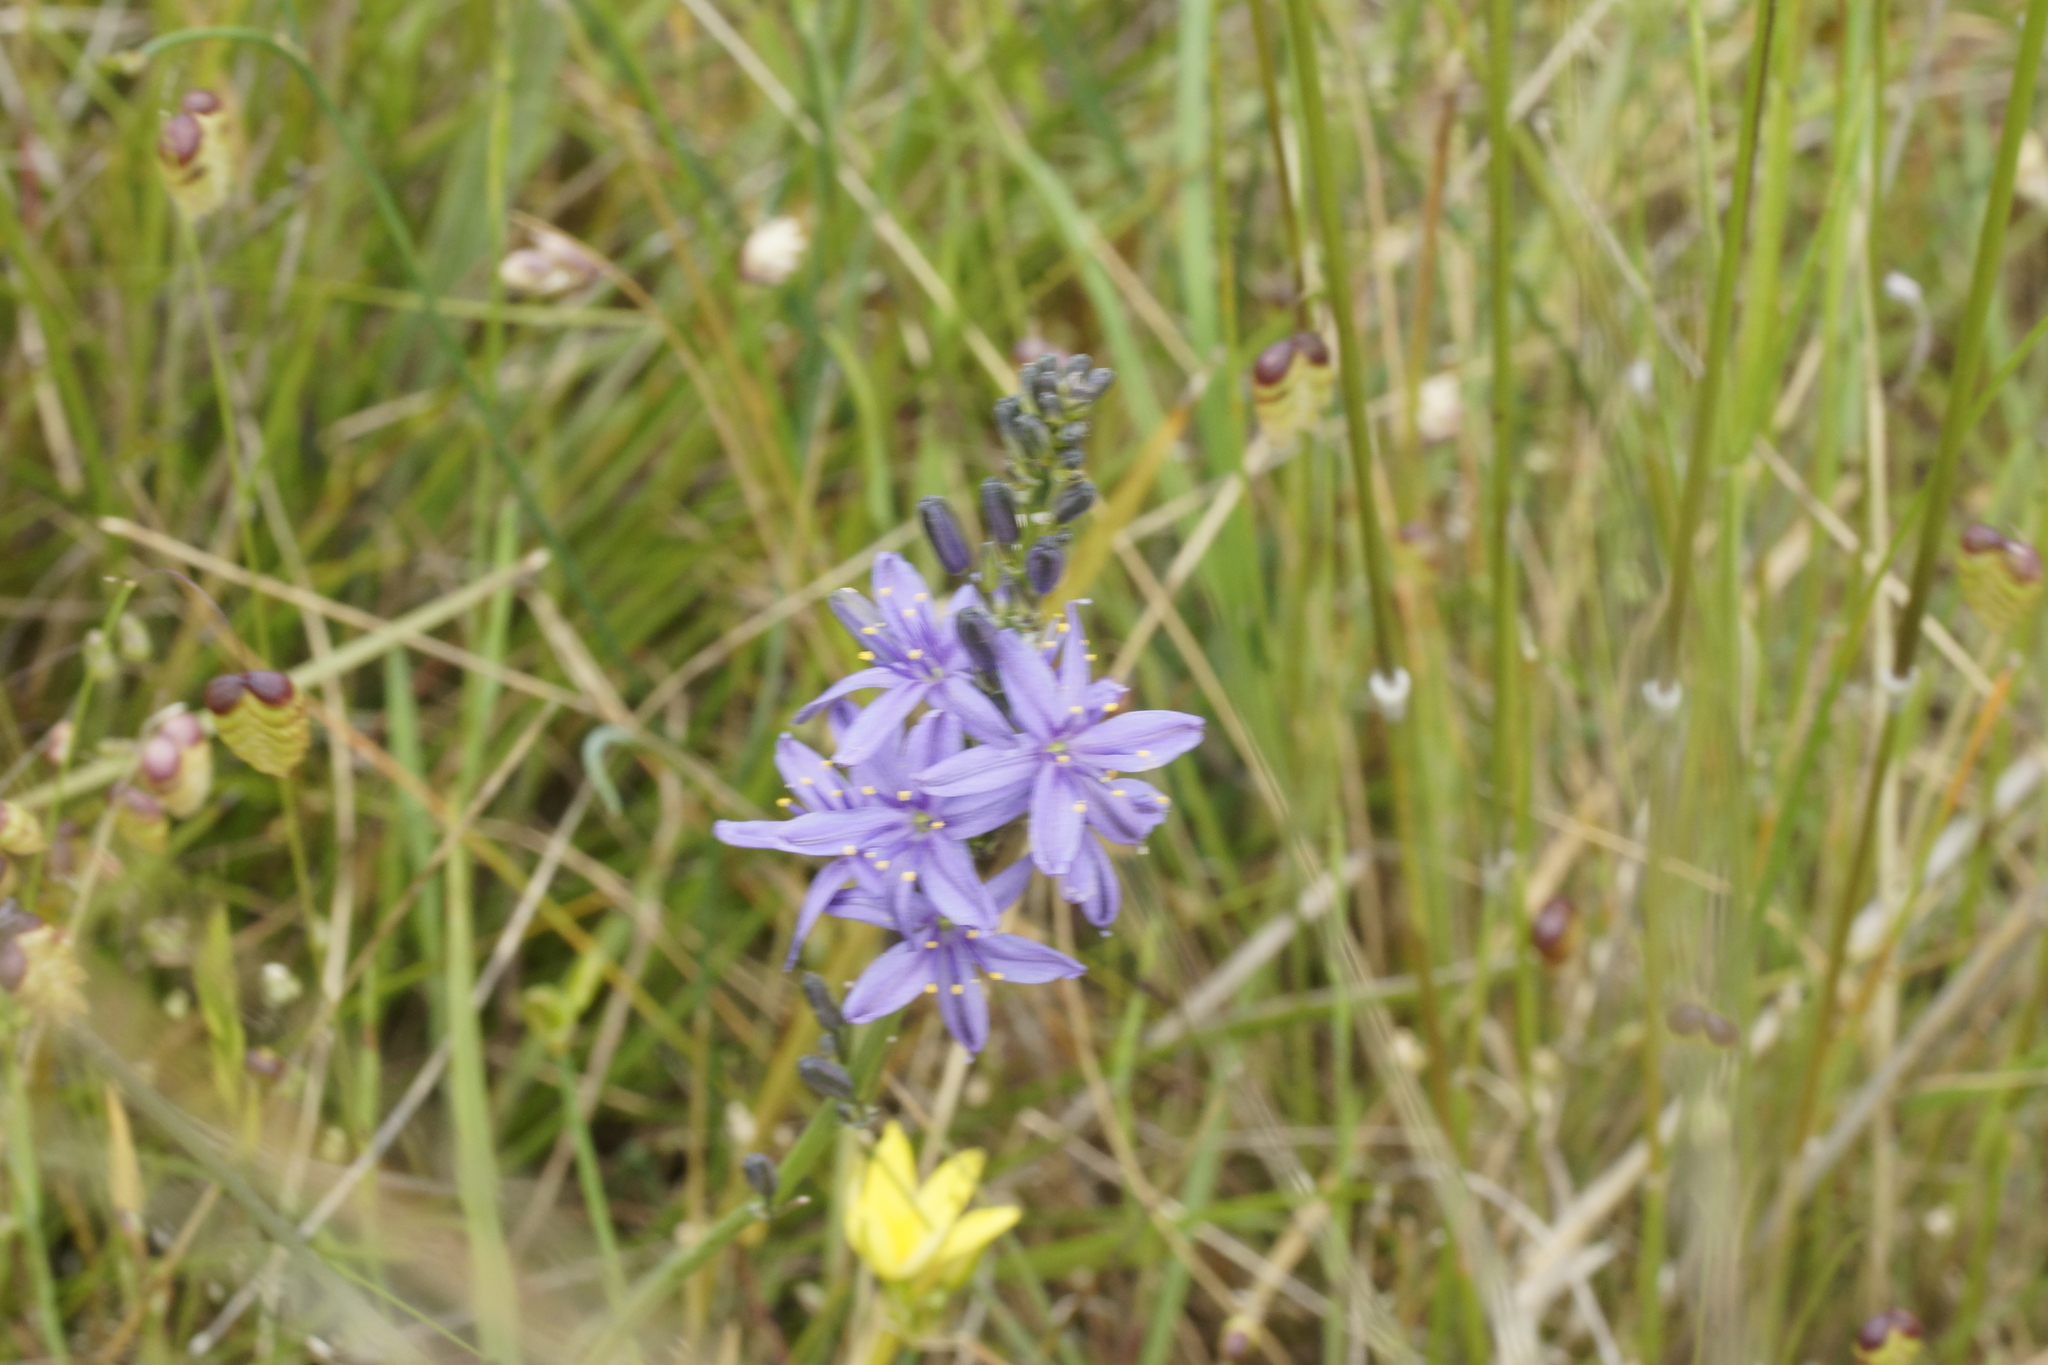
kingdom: Plantae
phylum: Tracheophyta
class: Liliopsida
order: Asparagales
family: Asphodelaceae
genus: Caesia
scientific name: Caesia calliantha
